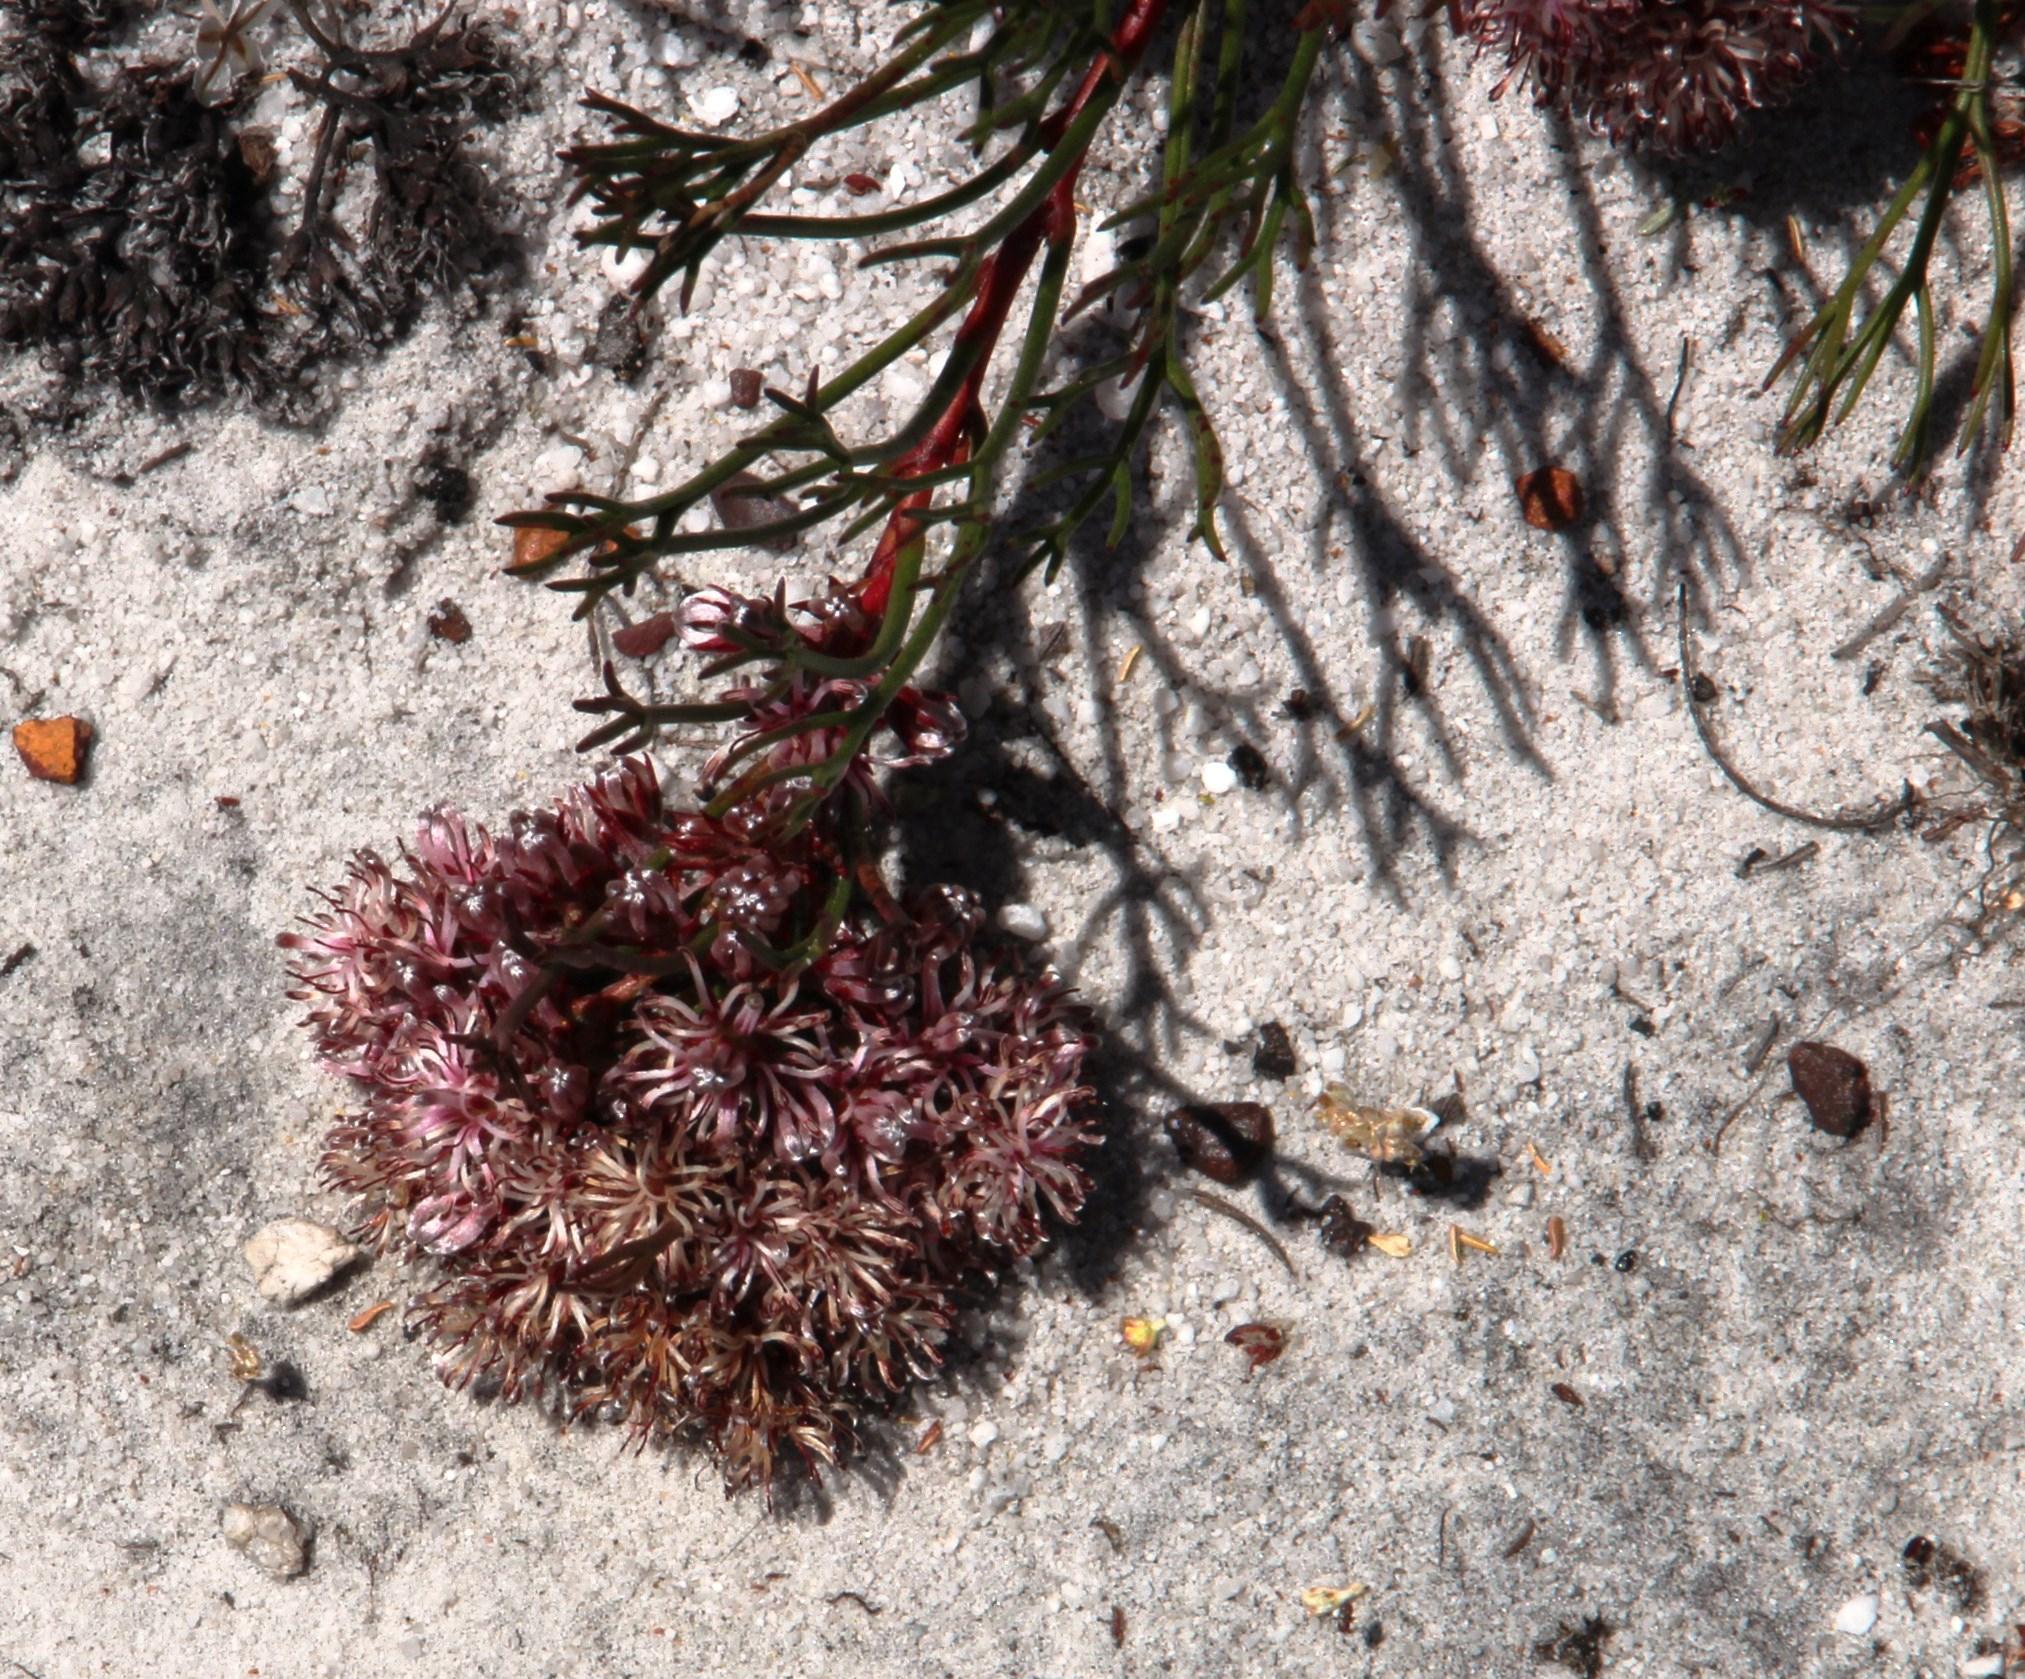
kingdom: Plantae
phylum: Tracheophyta
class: Magnoliopsida
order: Proteales
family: Proteaceae
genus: Serruria
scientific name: Serruria rubricaulis
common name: Red-stem spiderhead
